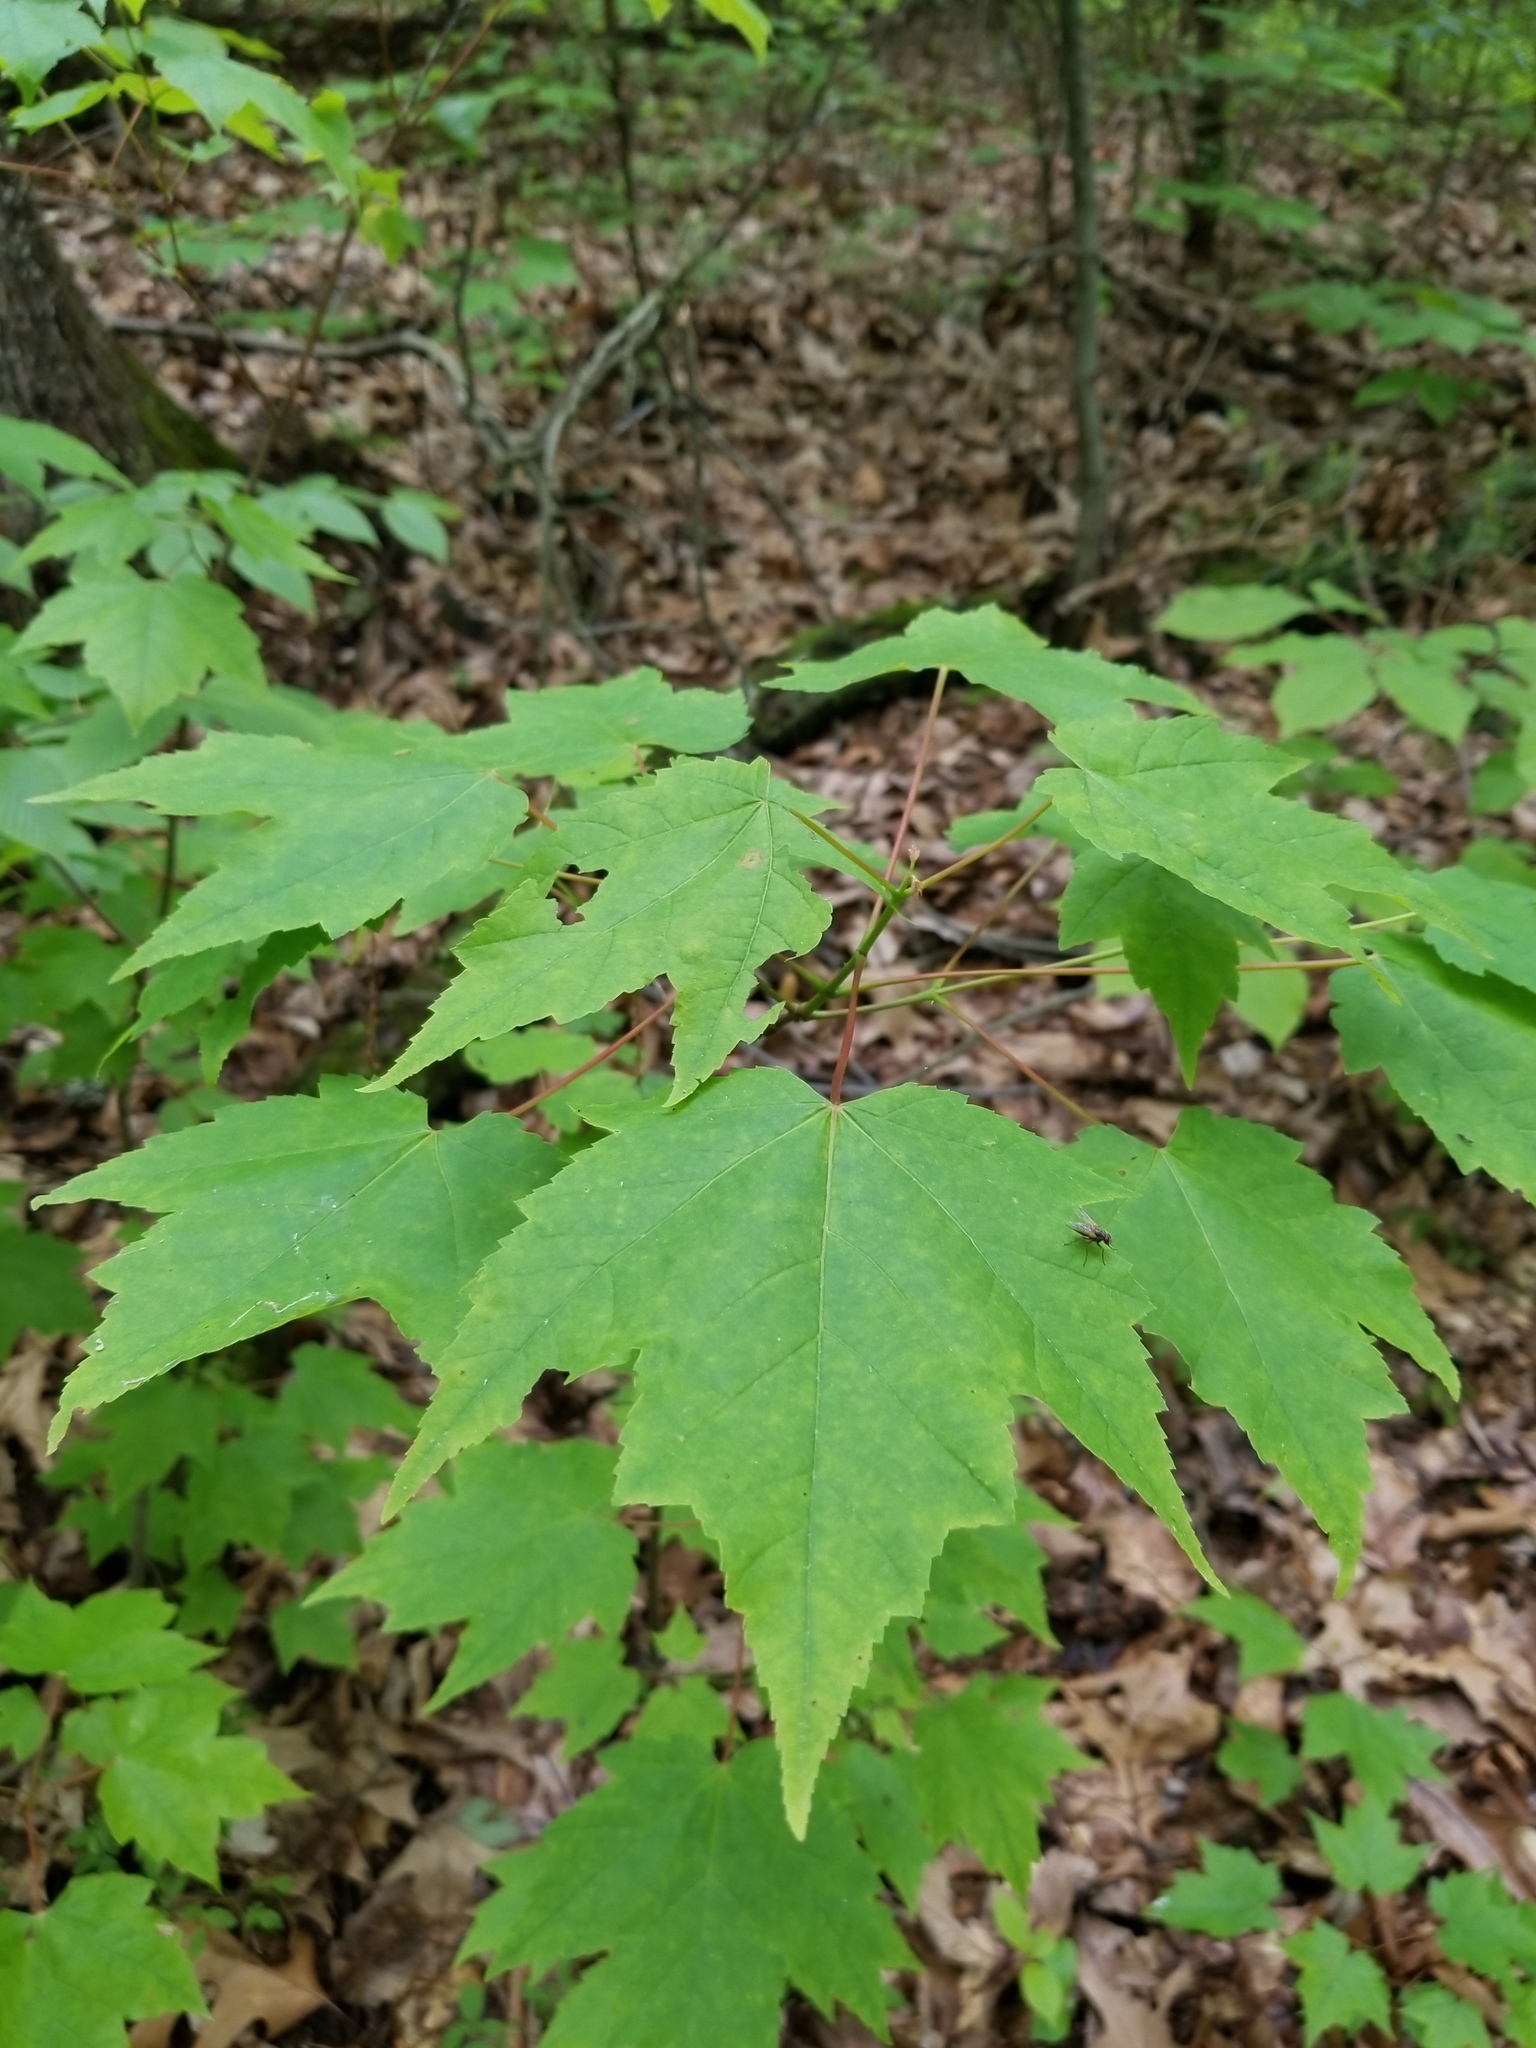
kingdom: Plantae
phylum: Tracheophyta
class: Magnoliopsida
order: Sapindales
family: Sapindaceae
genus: Acer
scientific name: Acer rubrum
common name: Red maple
